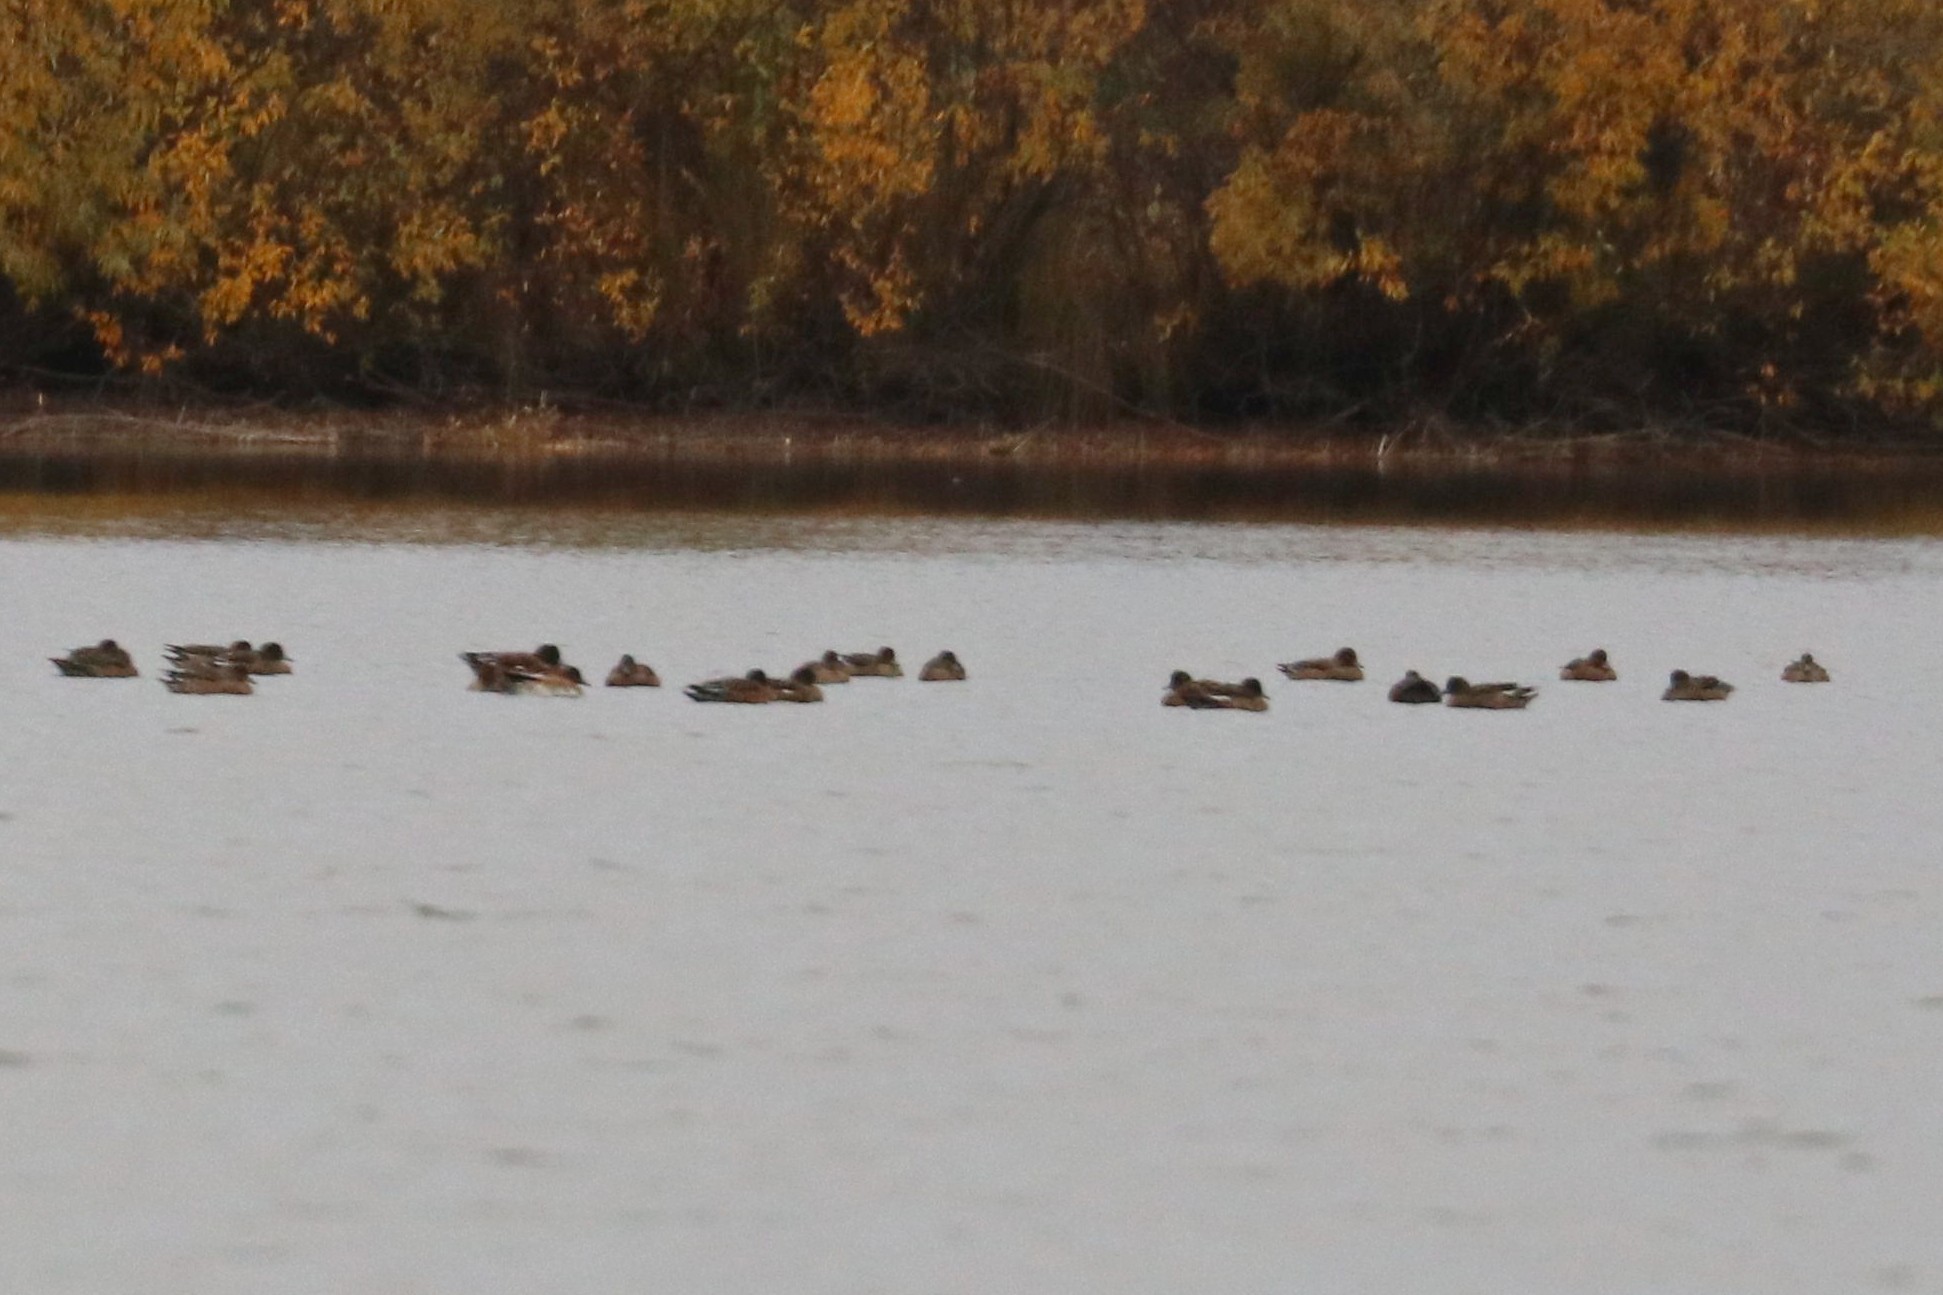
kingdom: Animalia
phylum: Chordata
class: Aves
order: Anseriformes
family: Anatidae
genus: Mareca
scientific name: Mareca penelope
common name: Eurasian wigeon
